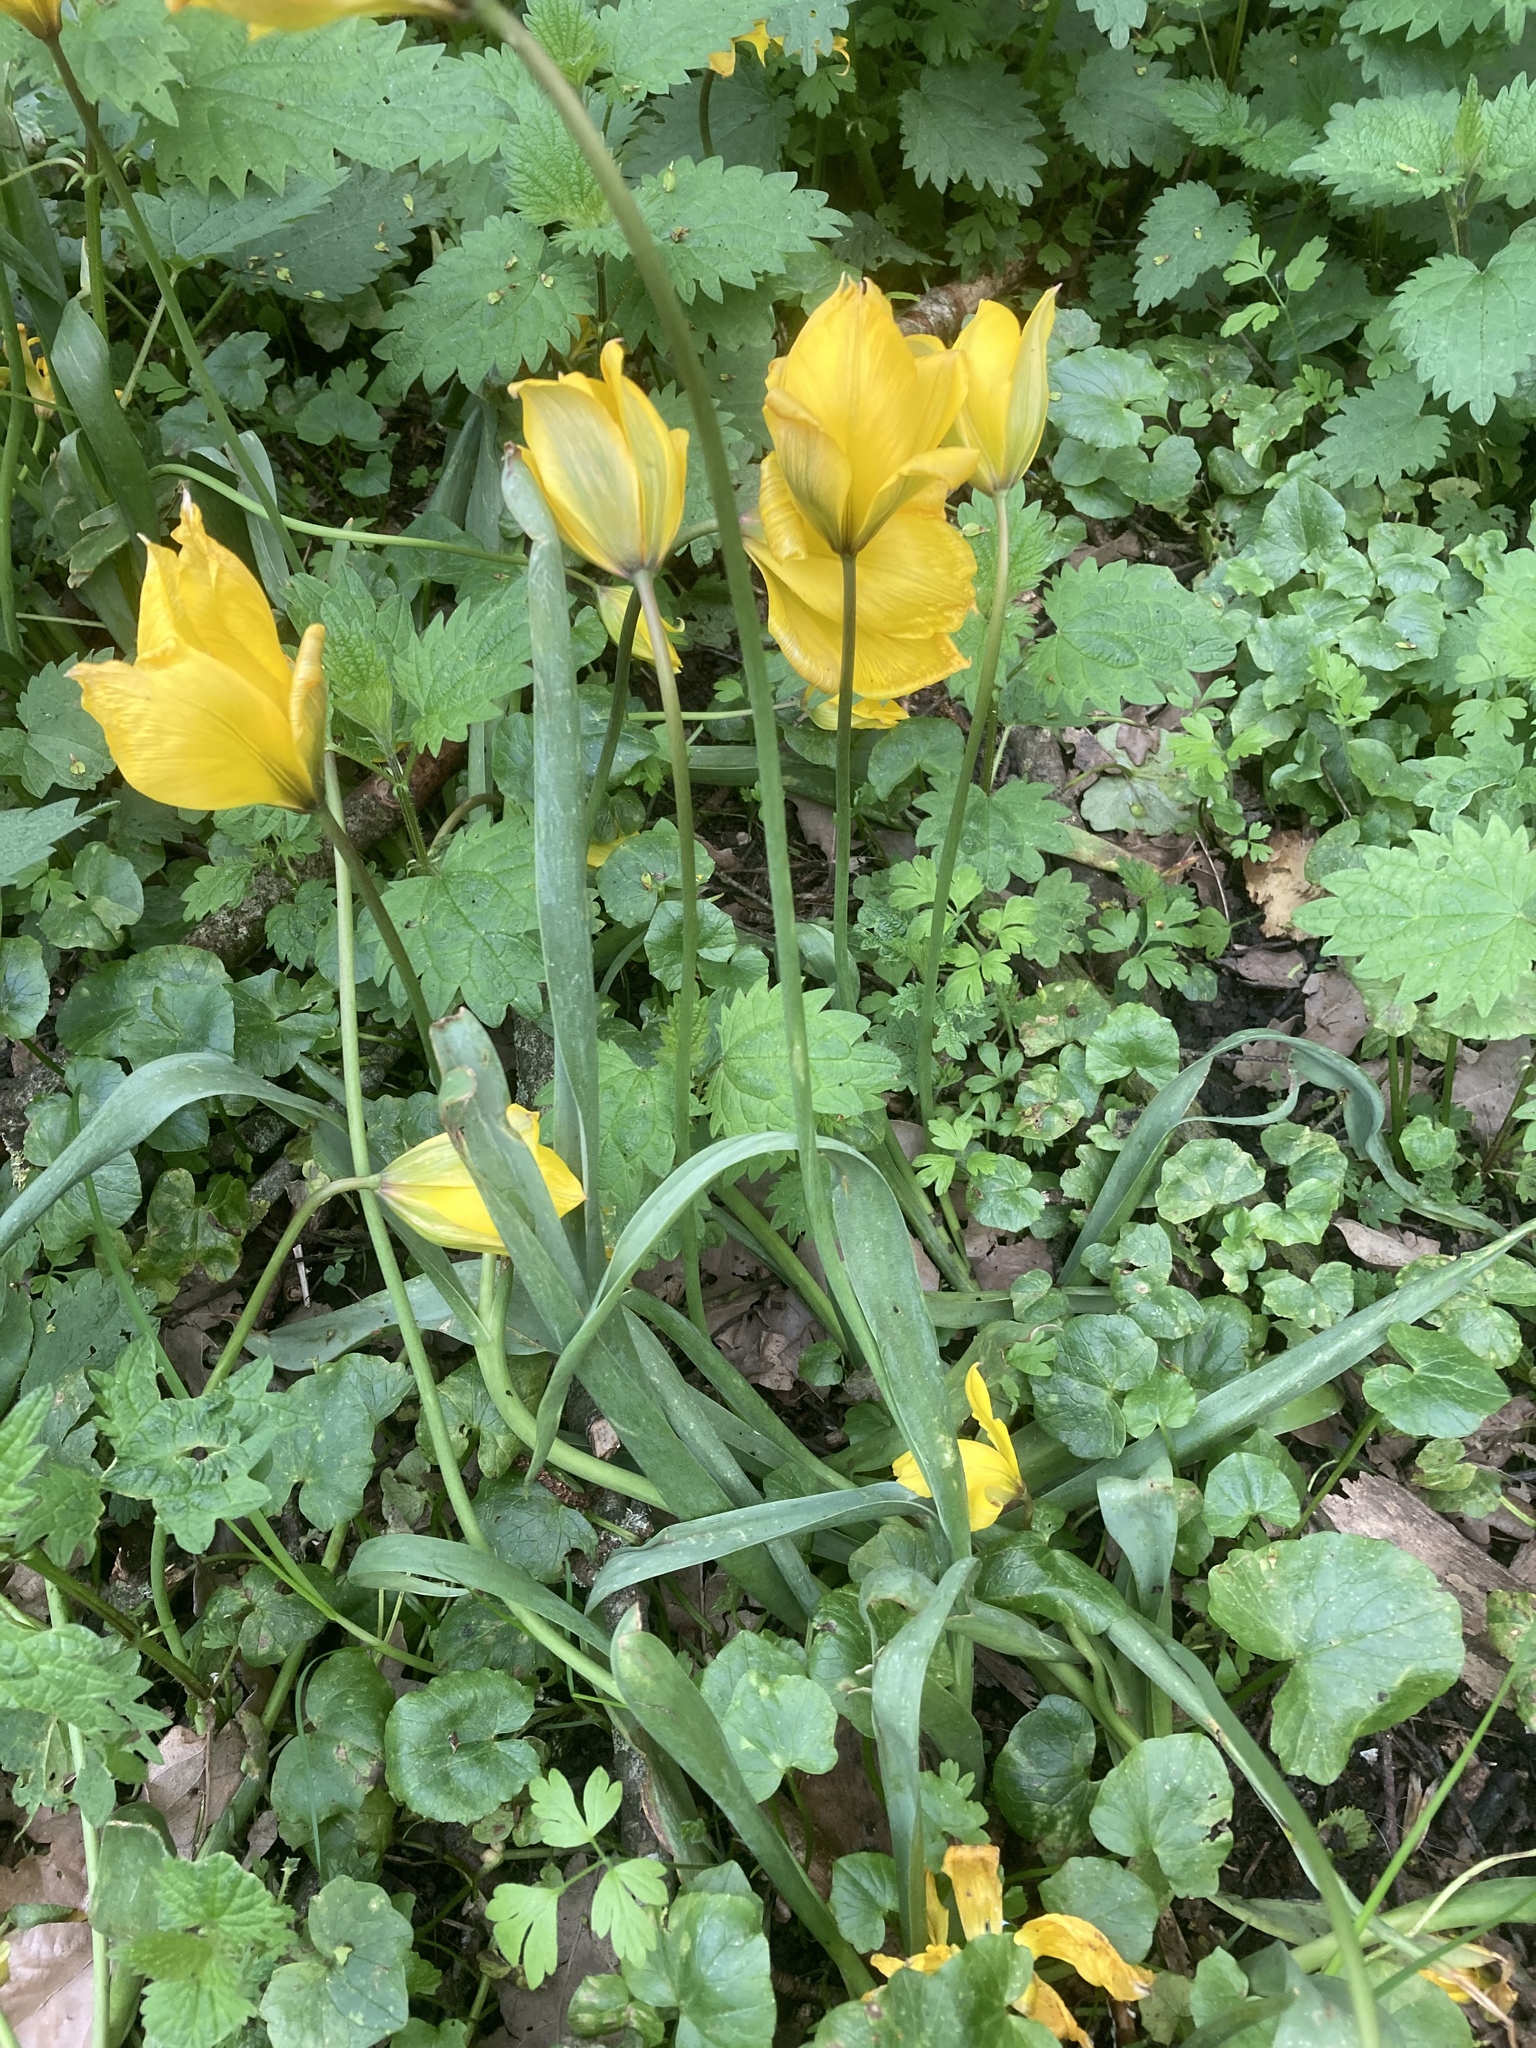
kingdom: Plantae
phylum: Tracheophyta
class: Liliopsida
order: Liliales
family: Liliaceae
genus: Tulipa
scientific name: Tulipa sylvestris
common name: Wild tulip
